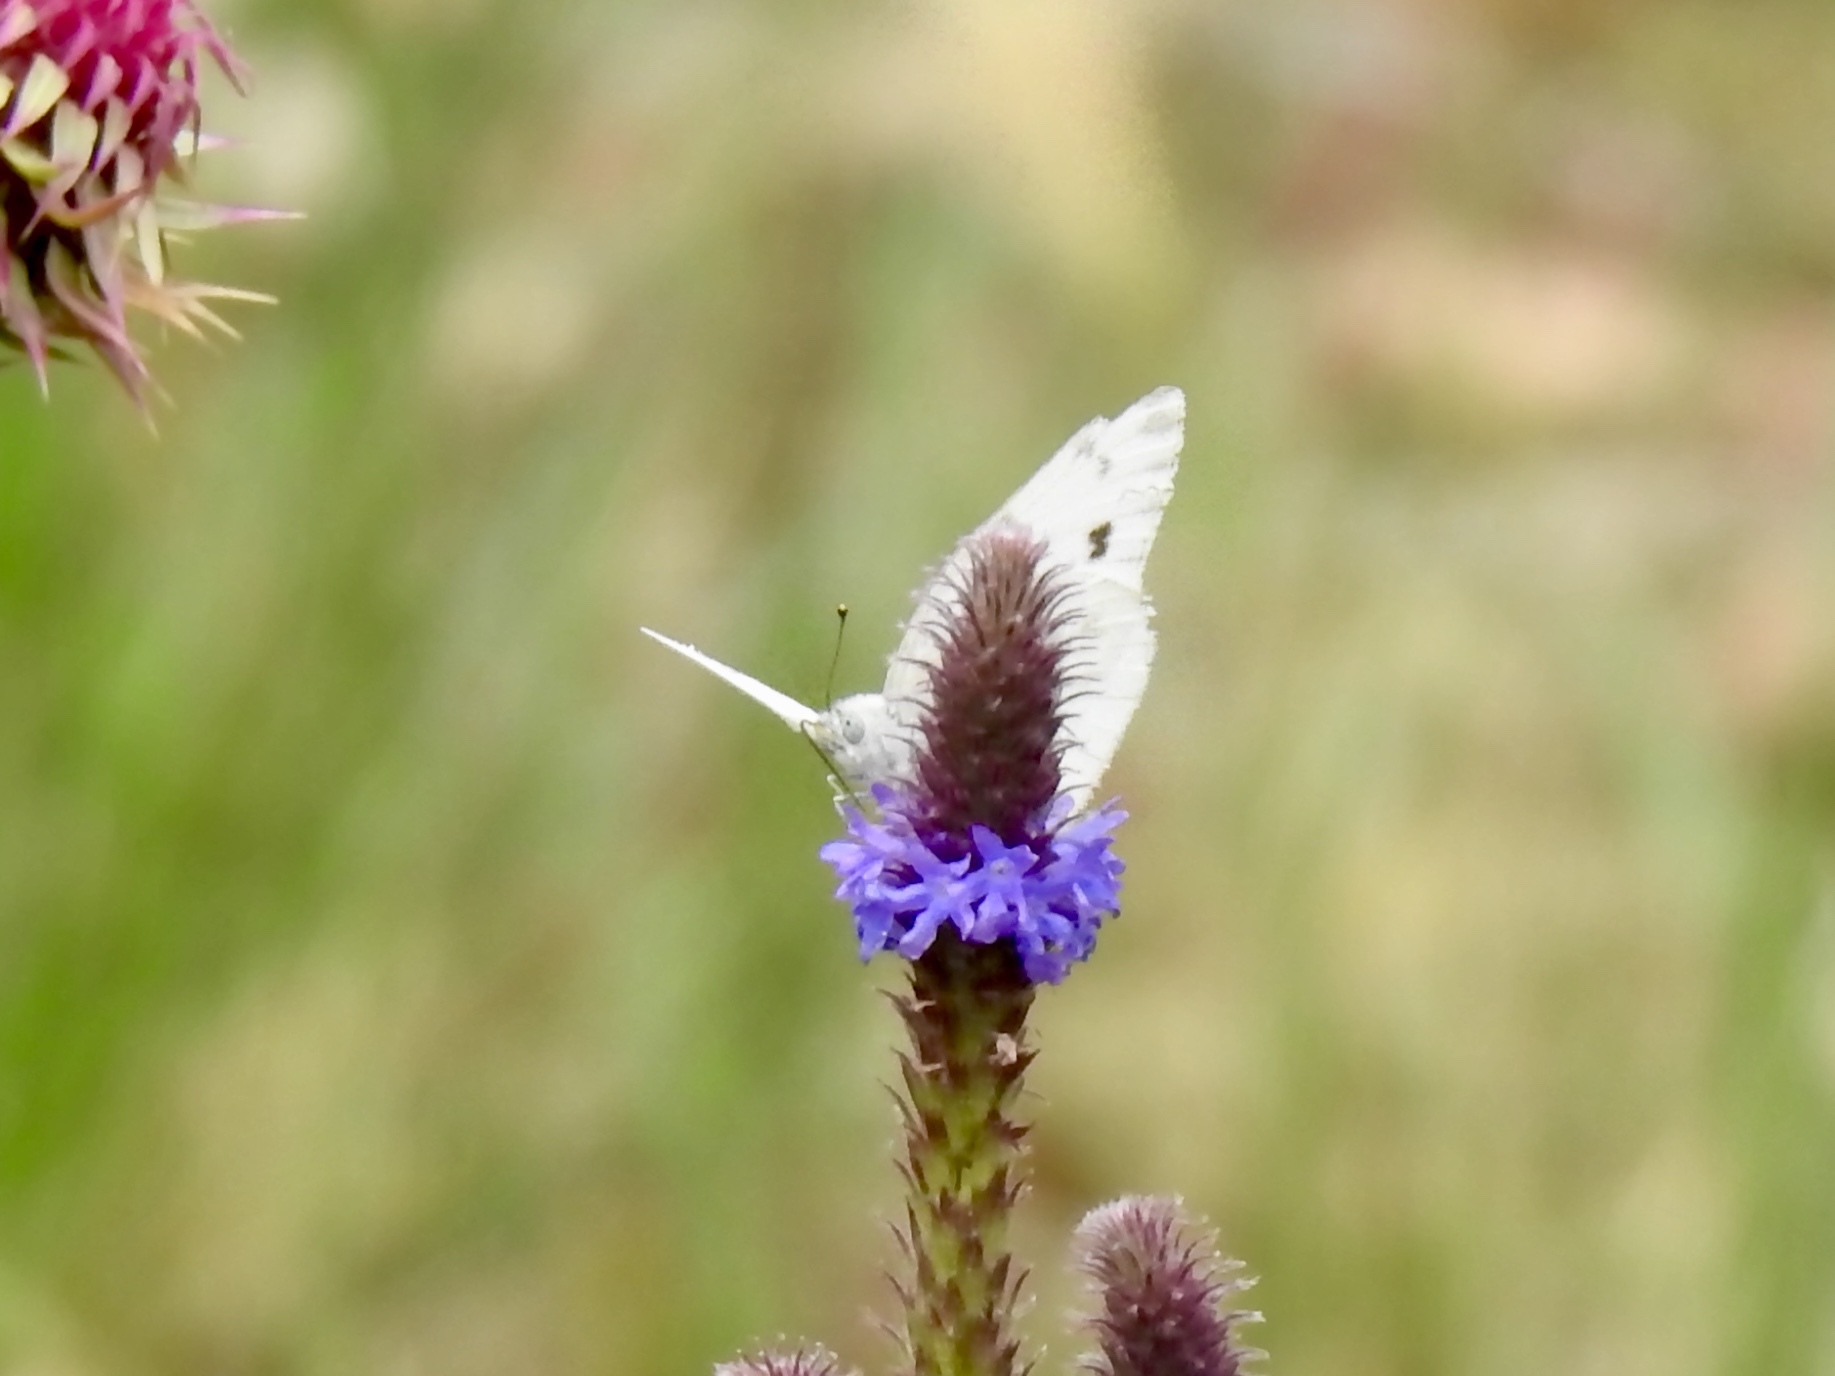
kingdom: Animalia
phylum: Arthropoda
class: Insecta
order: Lepidoptera
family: Pieridae
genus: Pontia
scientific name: Pontia protodice
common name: Checkered white
